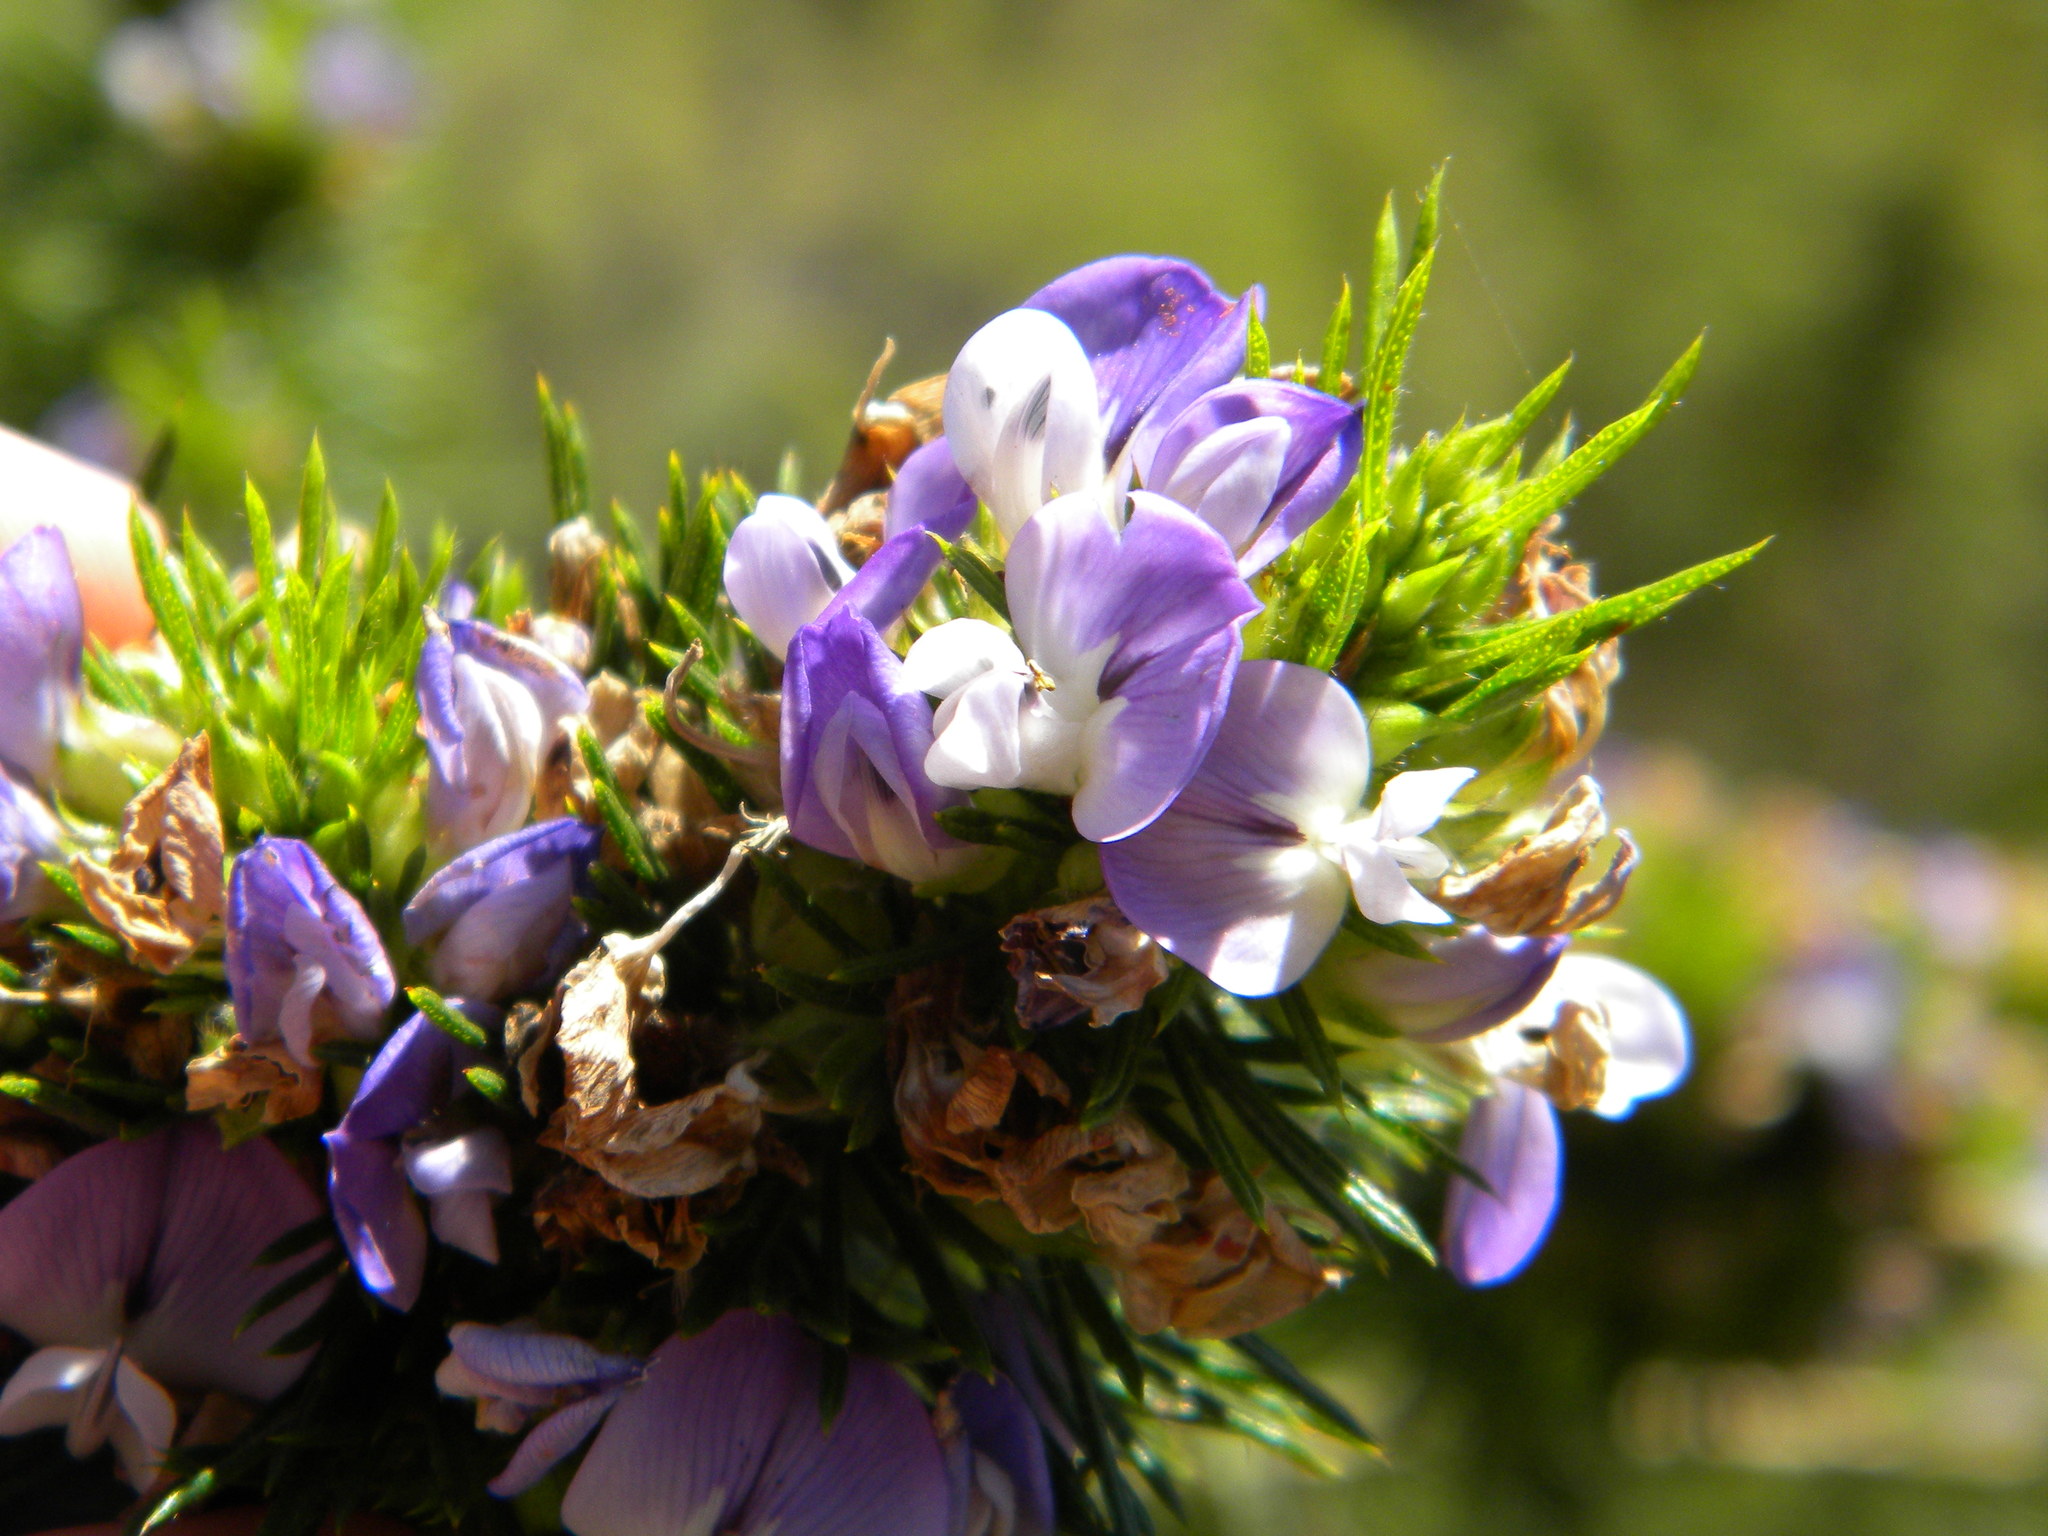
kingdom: Plantae
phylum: Tracheophyta
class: Magnoliopsida
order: Fabales
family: Fabaceae
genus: Psoralea
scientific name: Psoralea pinnata
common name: African scurfpea
